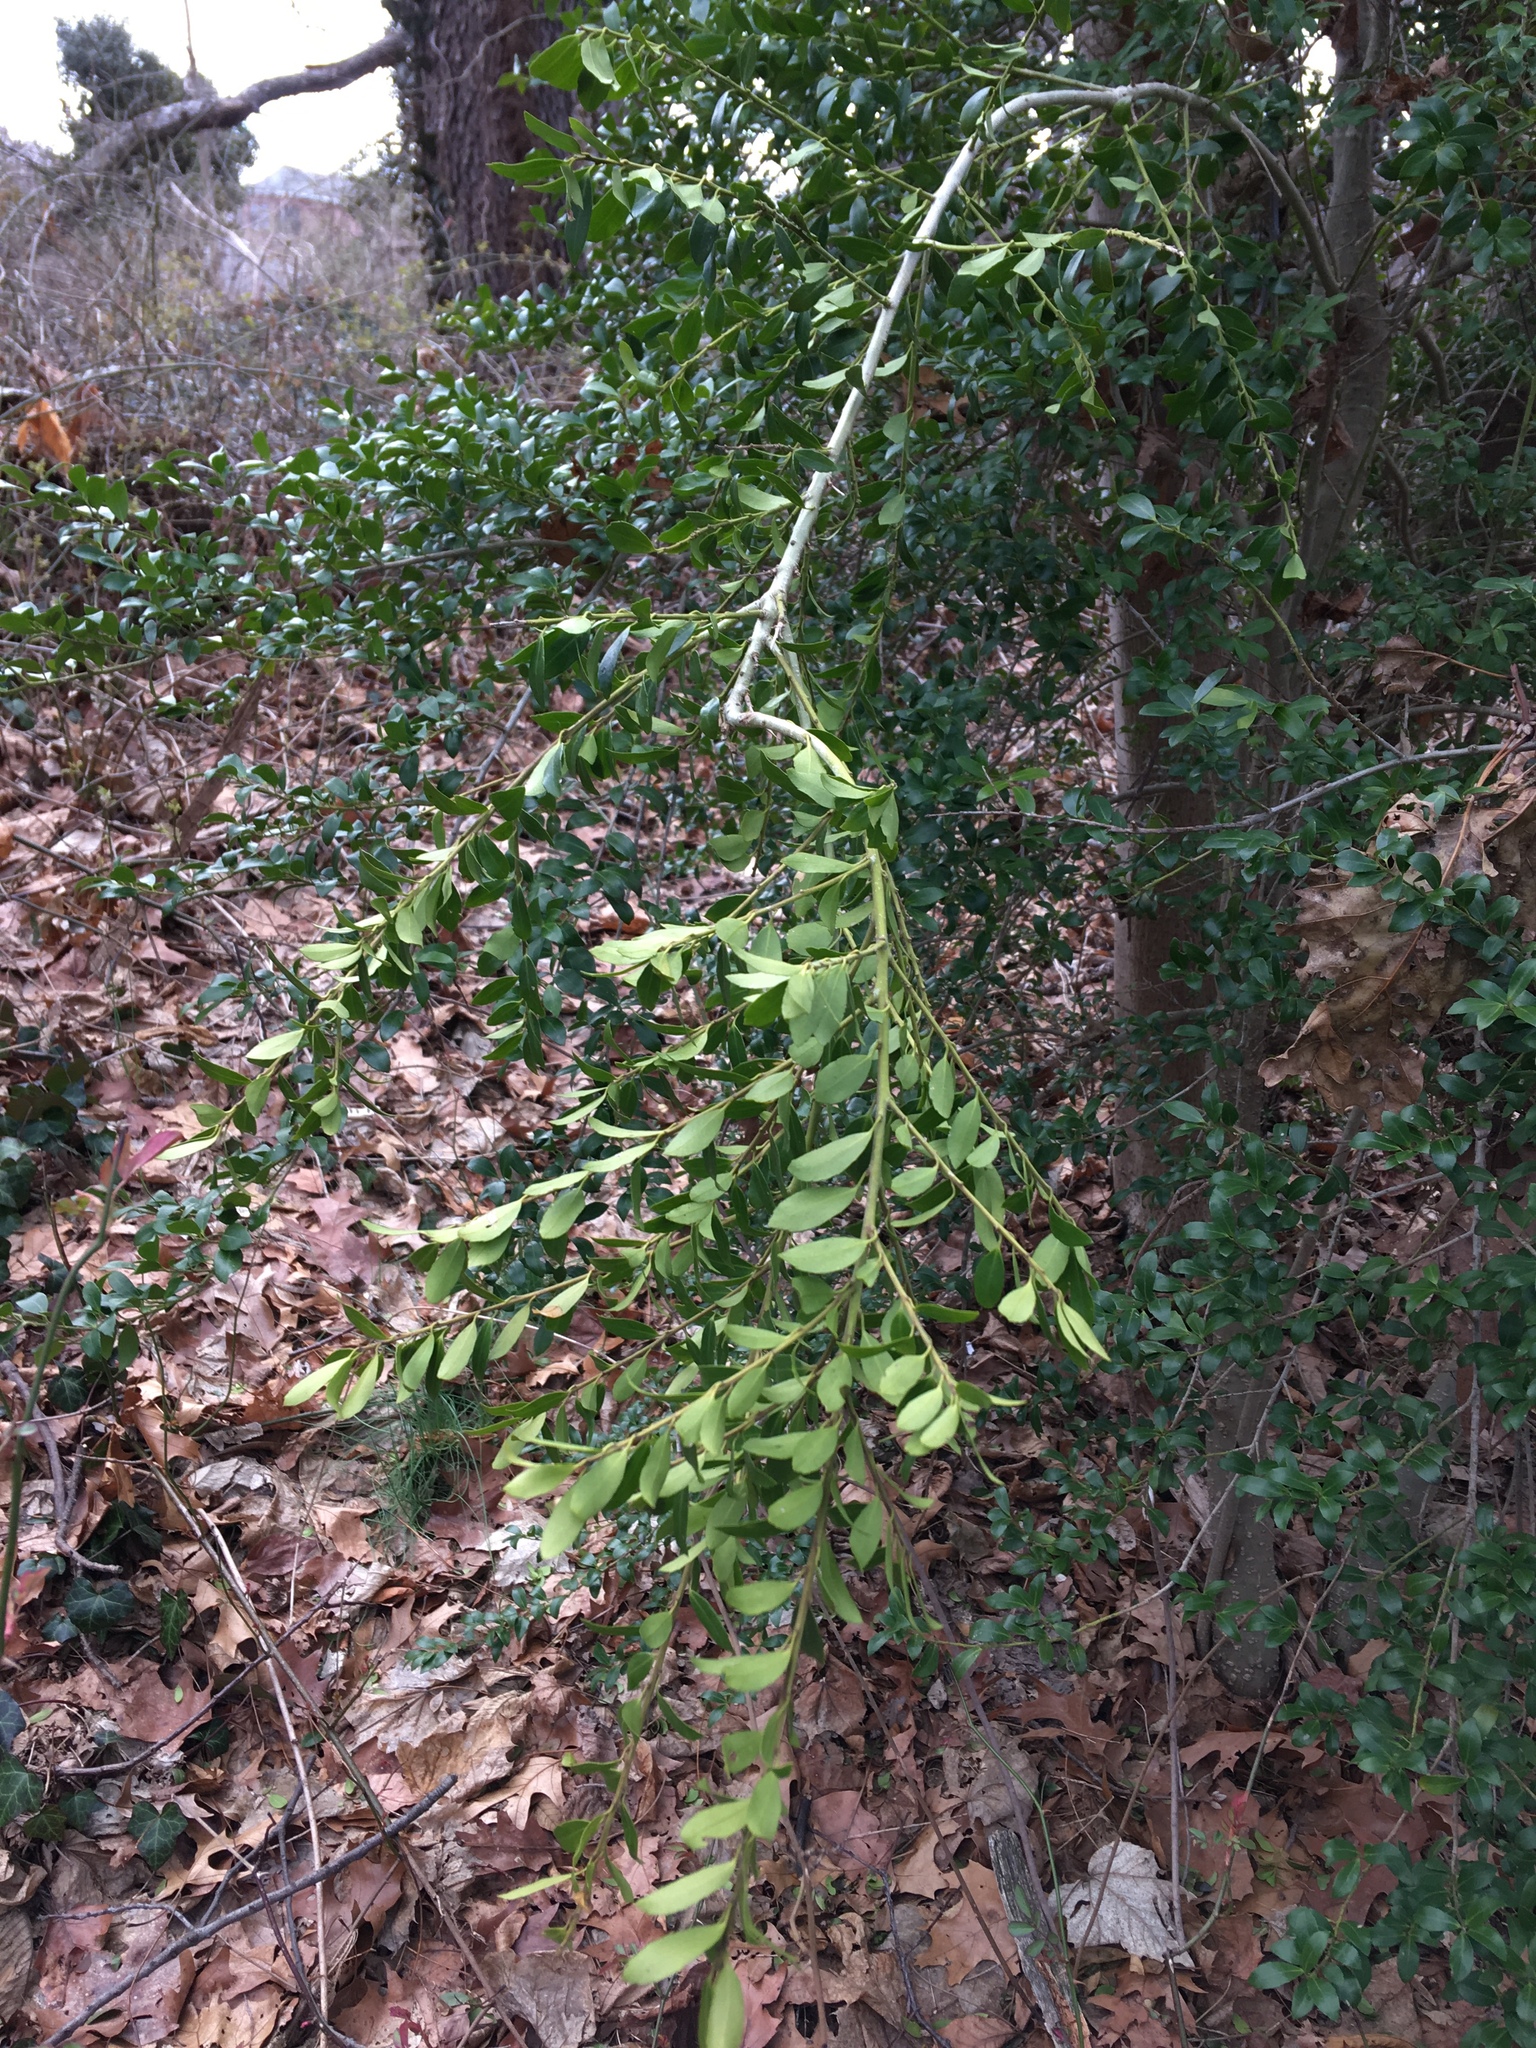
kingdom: Plantae
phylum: Tracheophyta
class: Magnoliopsida
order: Aquifoliales
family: Aquifoliaceae
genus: Ilex
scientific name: Ilex crenata
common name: Japanese holly
